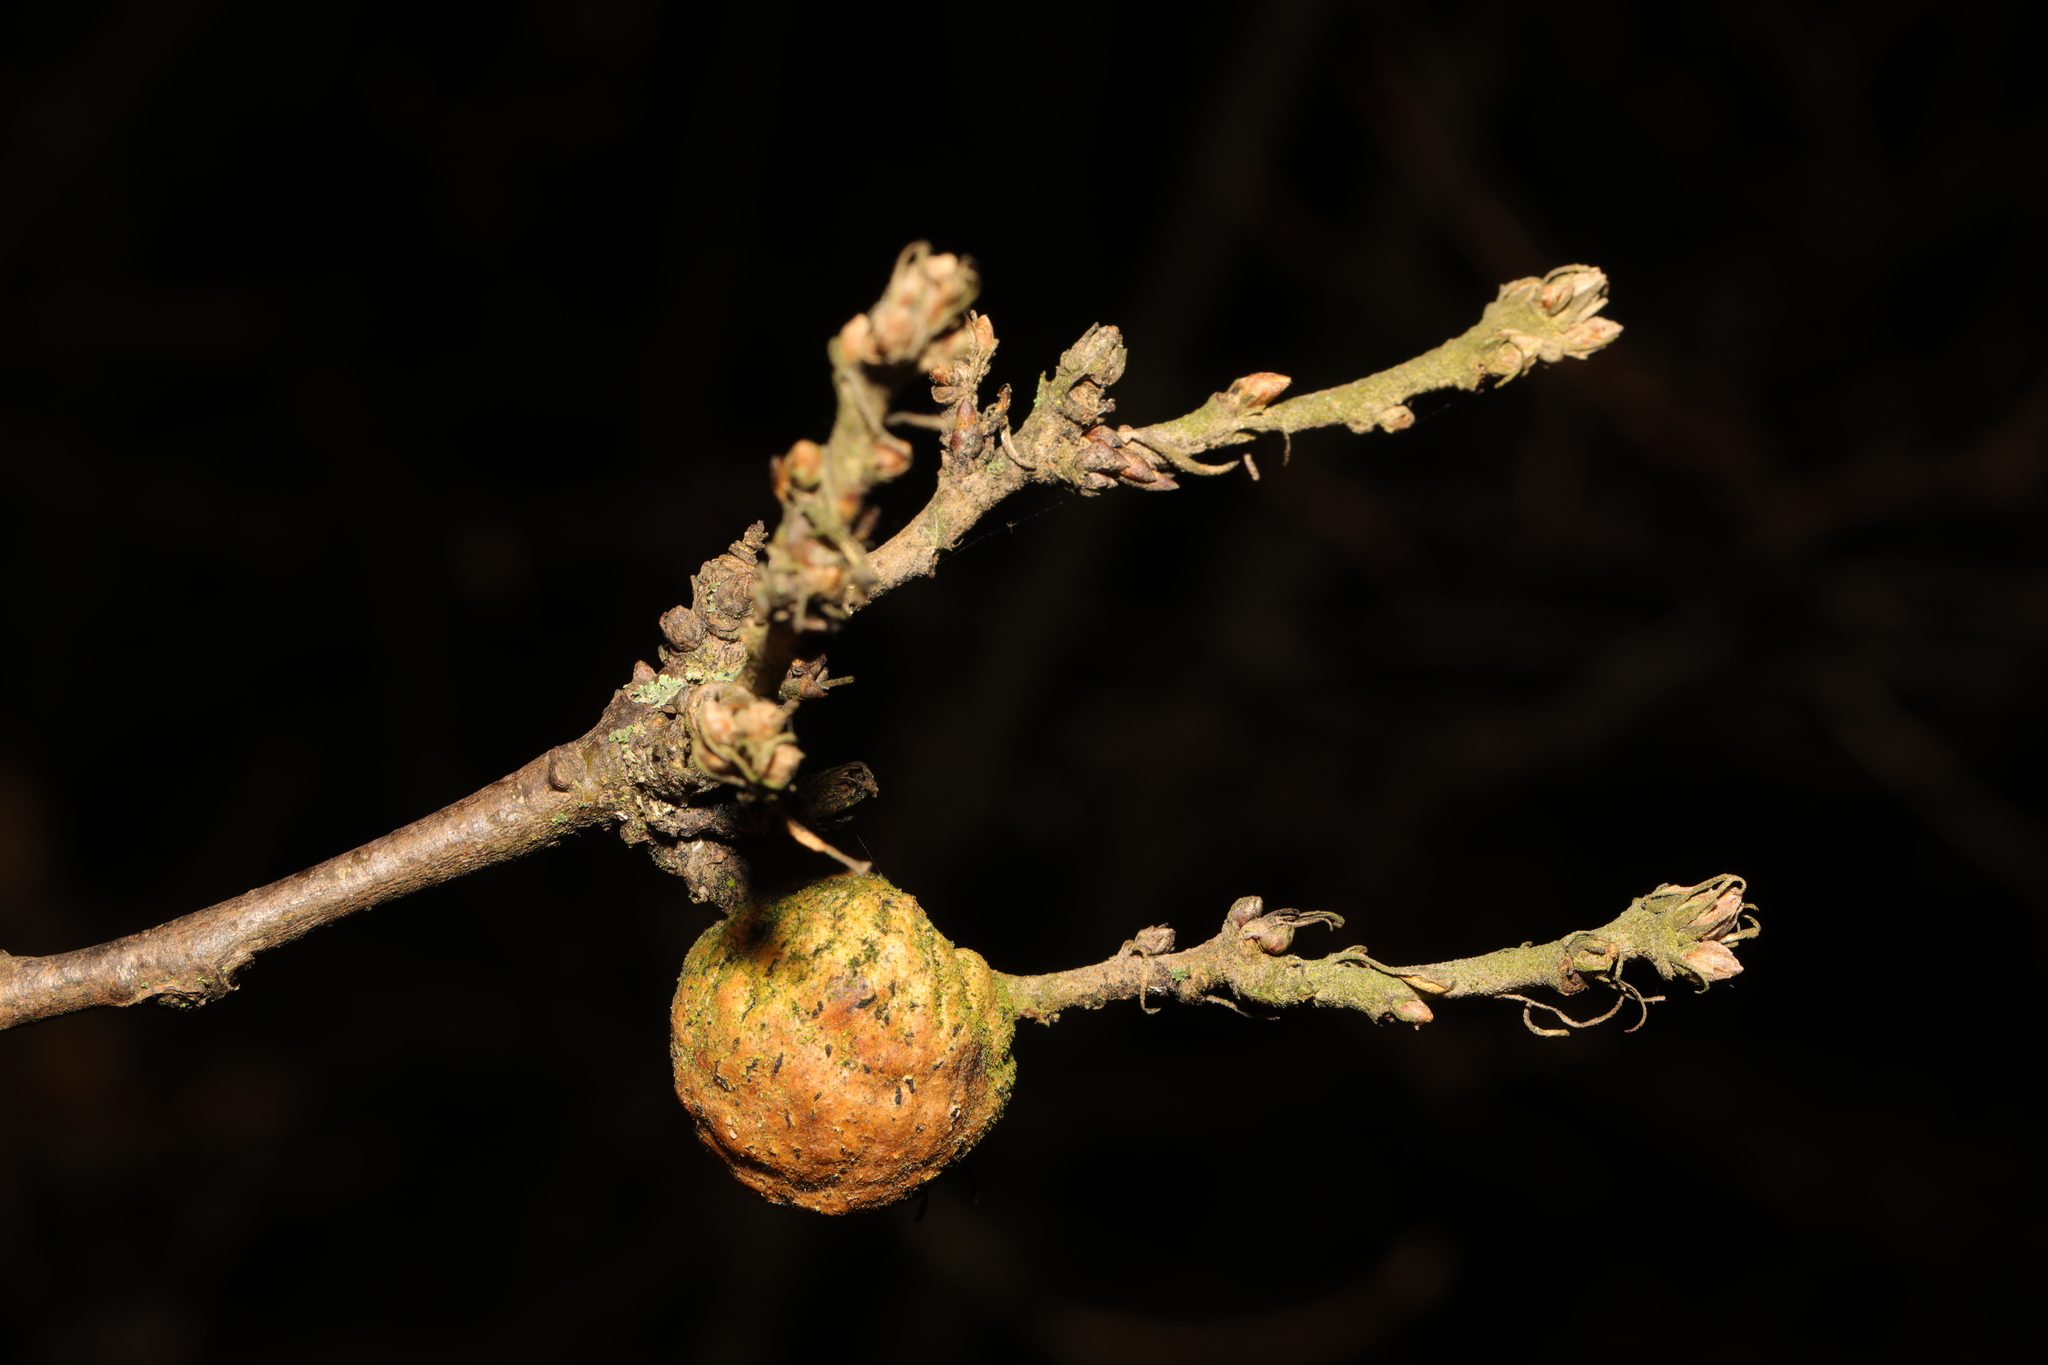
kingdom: Animalia
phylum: Arthropoda
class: Insecta
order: Hymenoptera
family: Cynipidae
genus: Aphelonyx
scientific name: Aphelonyx cerricola
